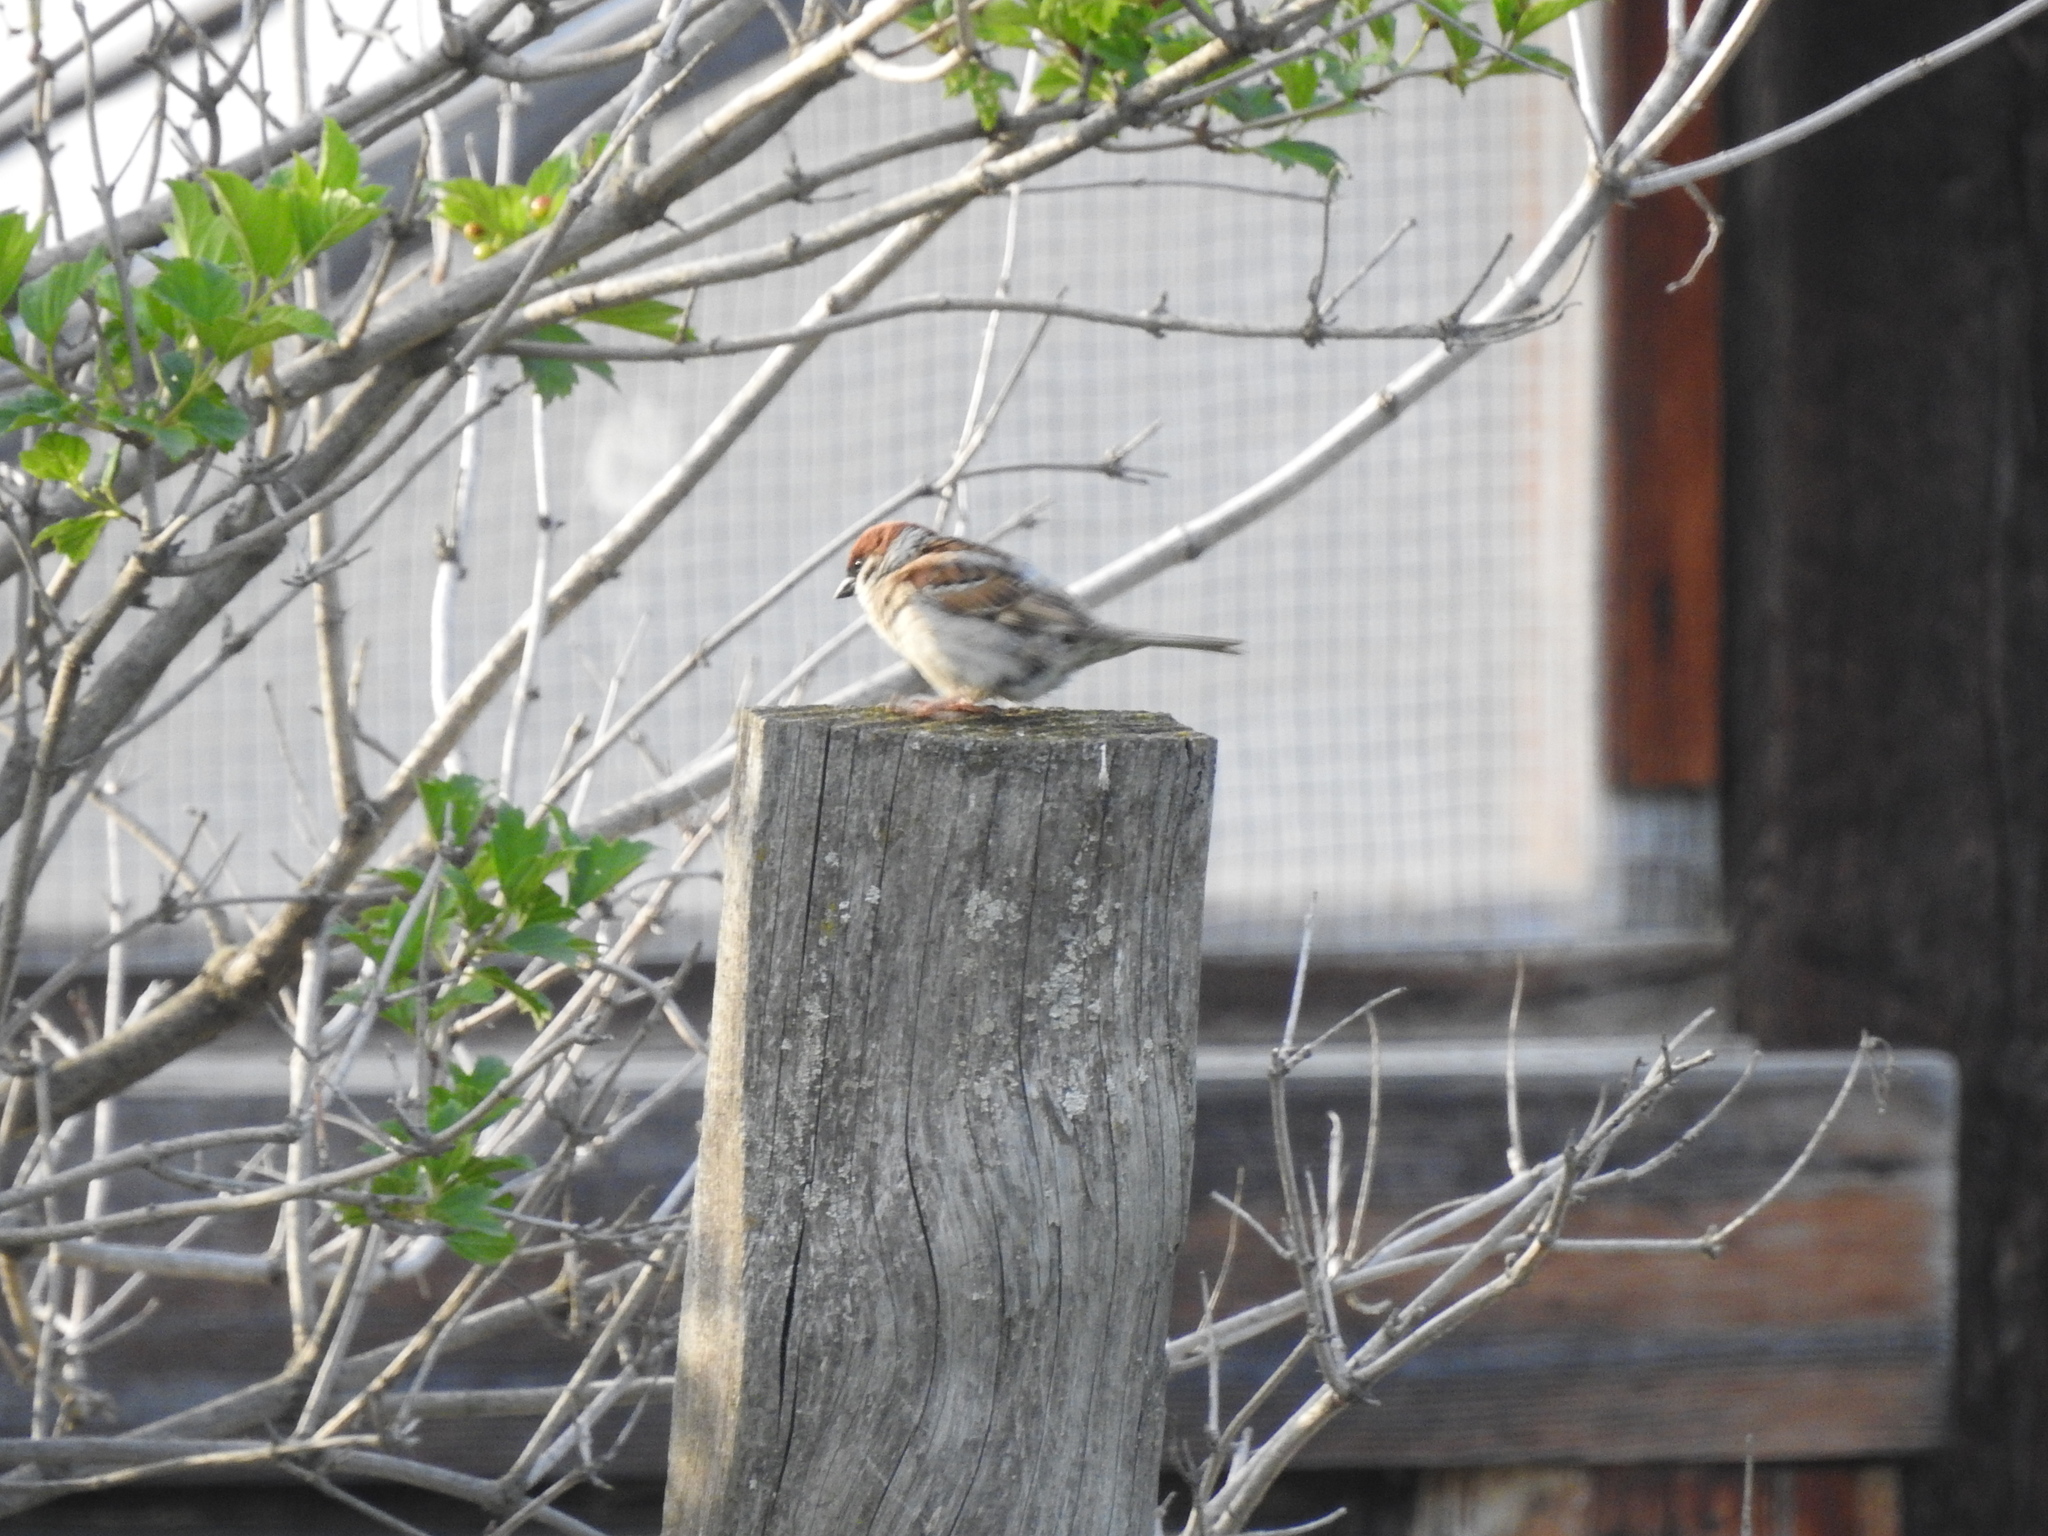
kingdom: Animalia
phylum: Chordata
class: Aves
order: Passeriformes
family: Passeridae
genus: Passer
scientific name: Passer montanus
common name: Eurasian tree sparrow
